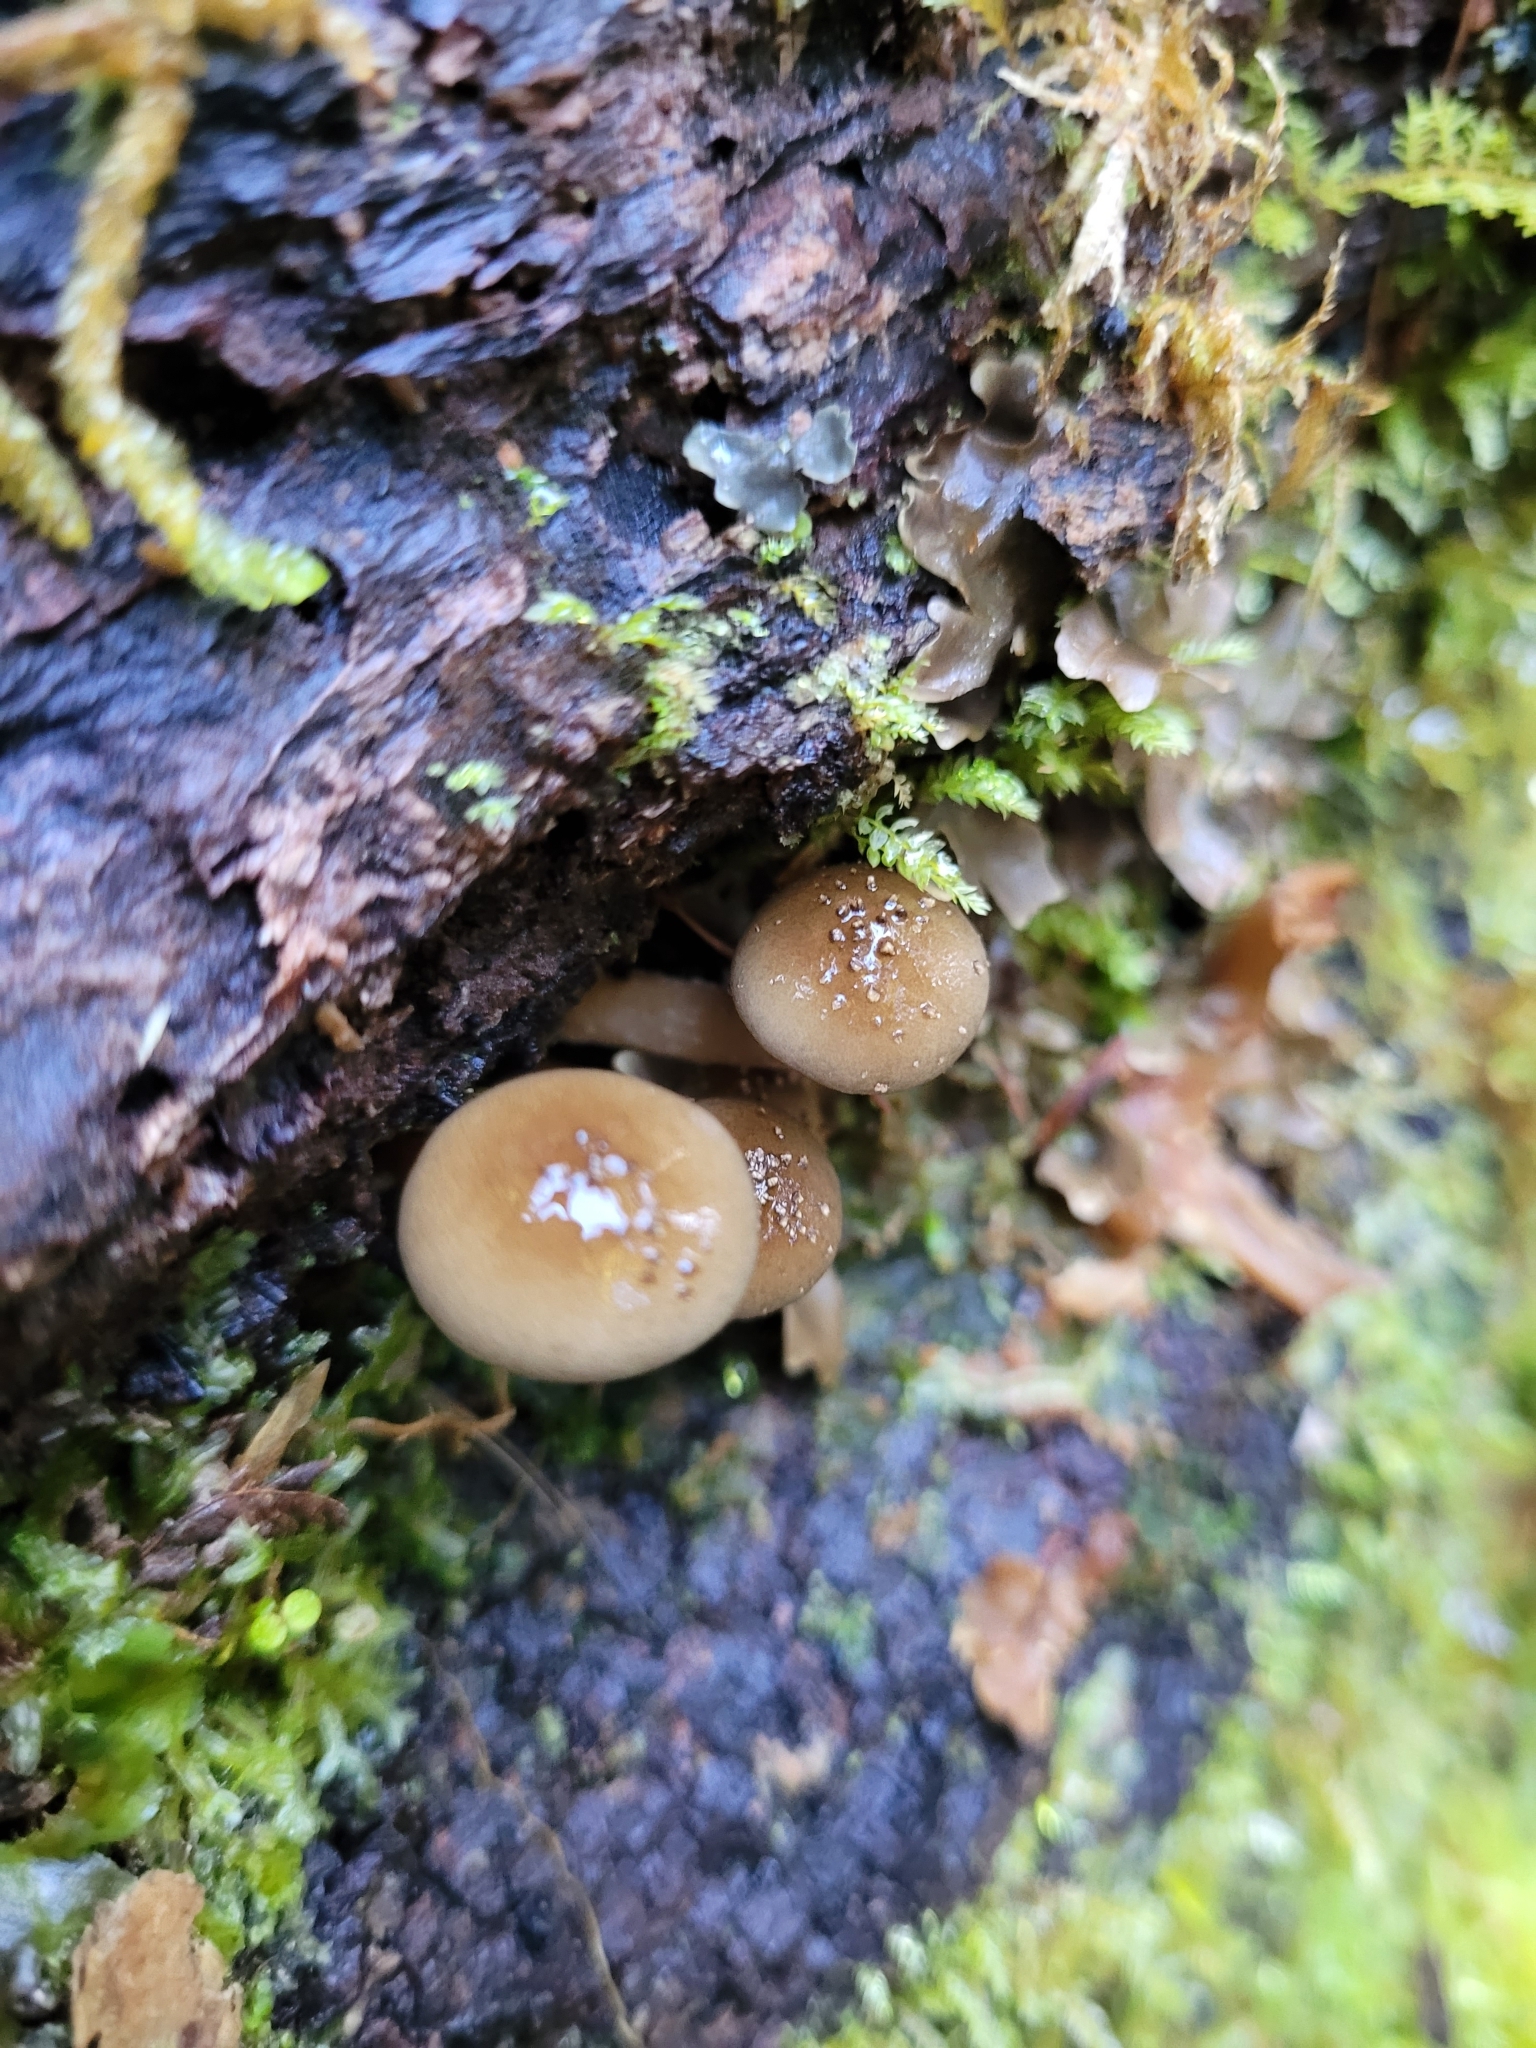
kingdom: Fungi
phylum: Basidiomycota
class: Agaricomycetes
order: Agaricales
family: Physalacriaceae
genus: Armillaria
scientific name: Armillaria novae-zelandiae
